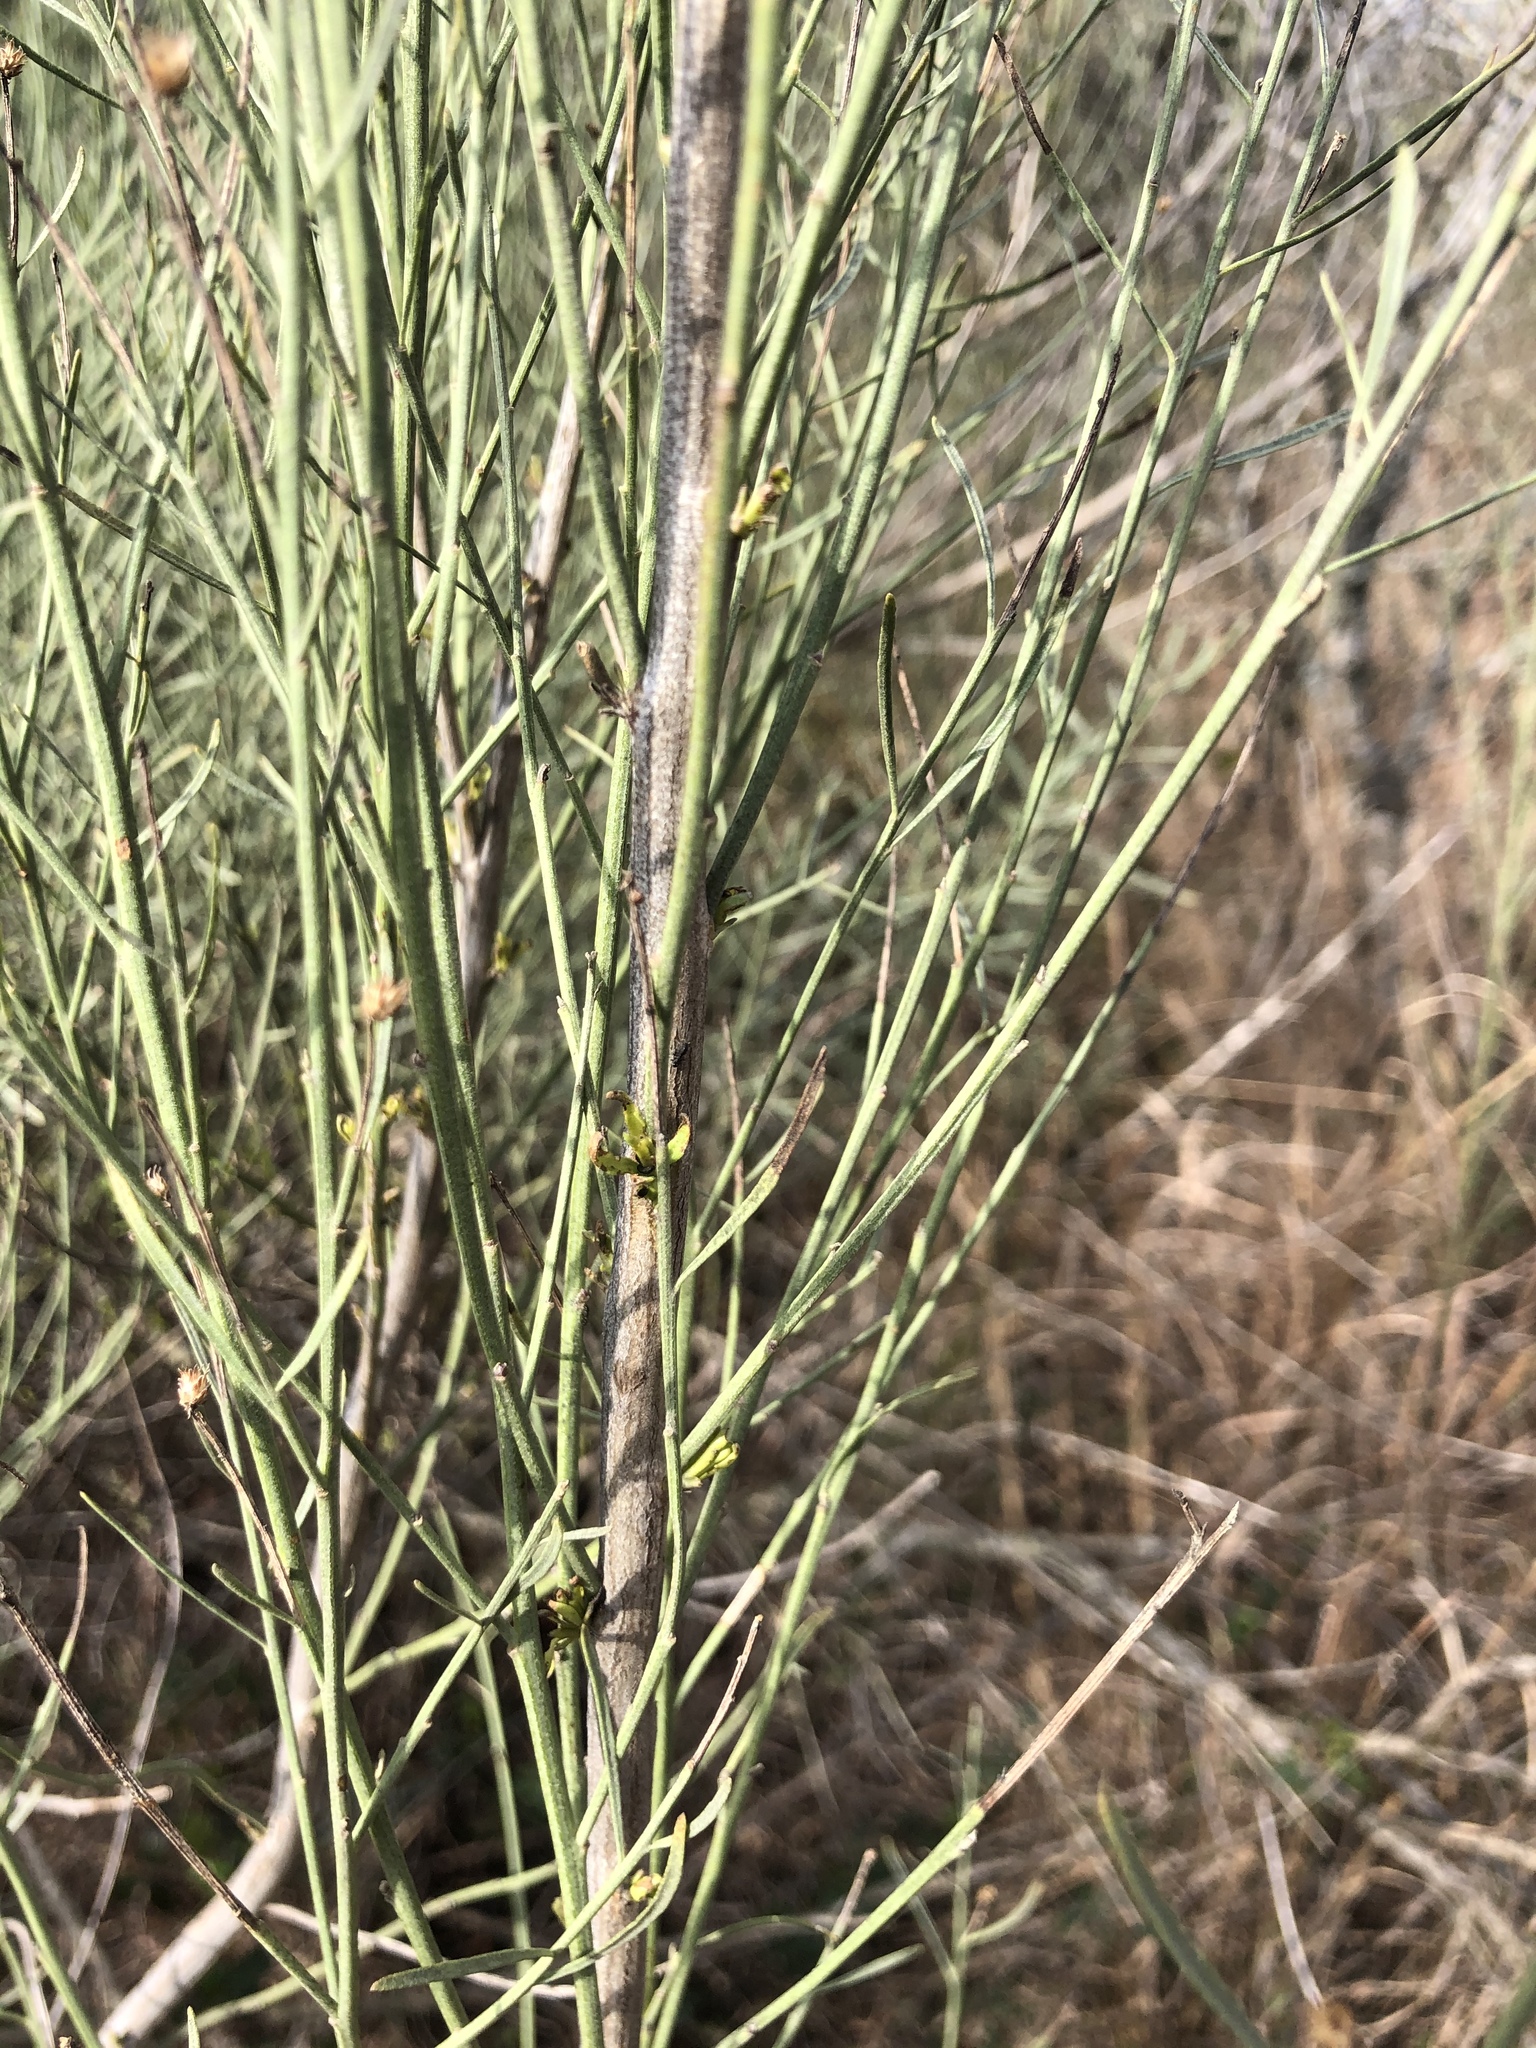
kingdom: Plantae
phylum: Tracheophyta
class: Magnoliopsida
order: Asterales
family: Asteraceae
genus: Baccharis
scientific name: Baccharis neglecta
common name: Roosevelt-weed
